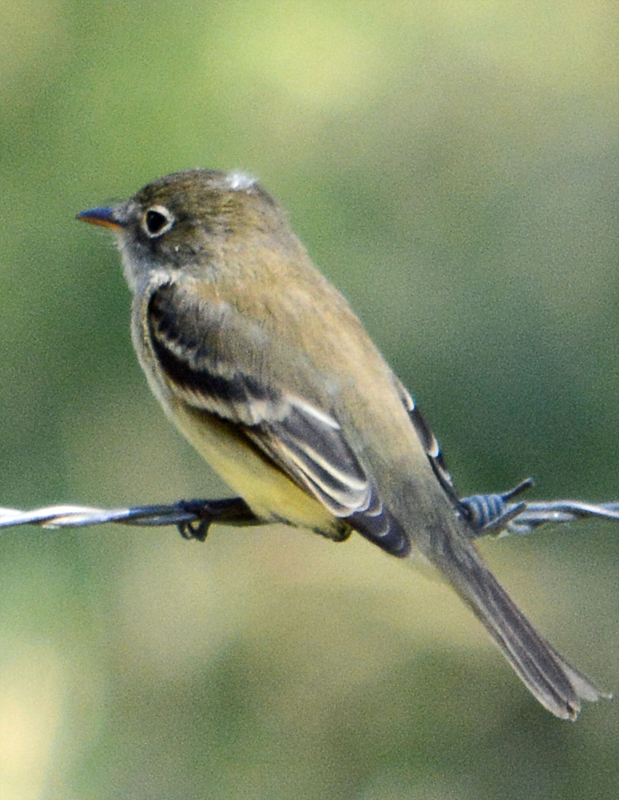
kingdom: Animalia
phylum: Chordata
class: Aves
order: Passeriformes
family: Tyrannidae
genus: Empidonax
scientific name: Empidonax minimus
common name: Least flycatcher
